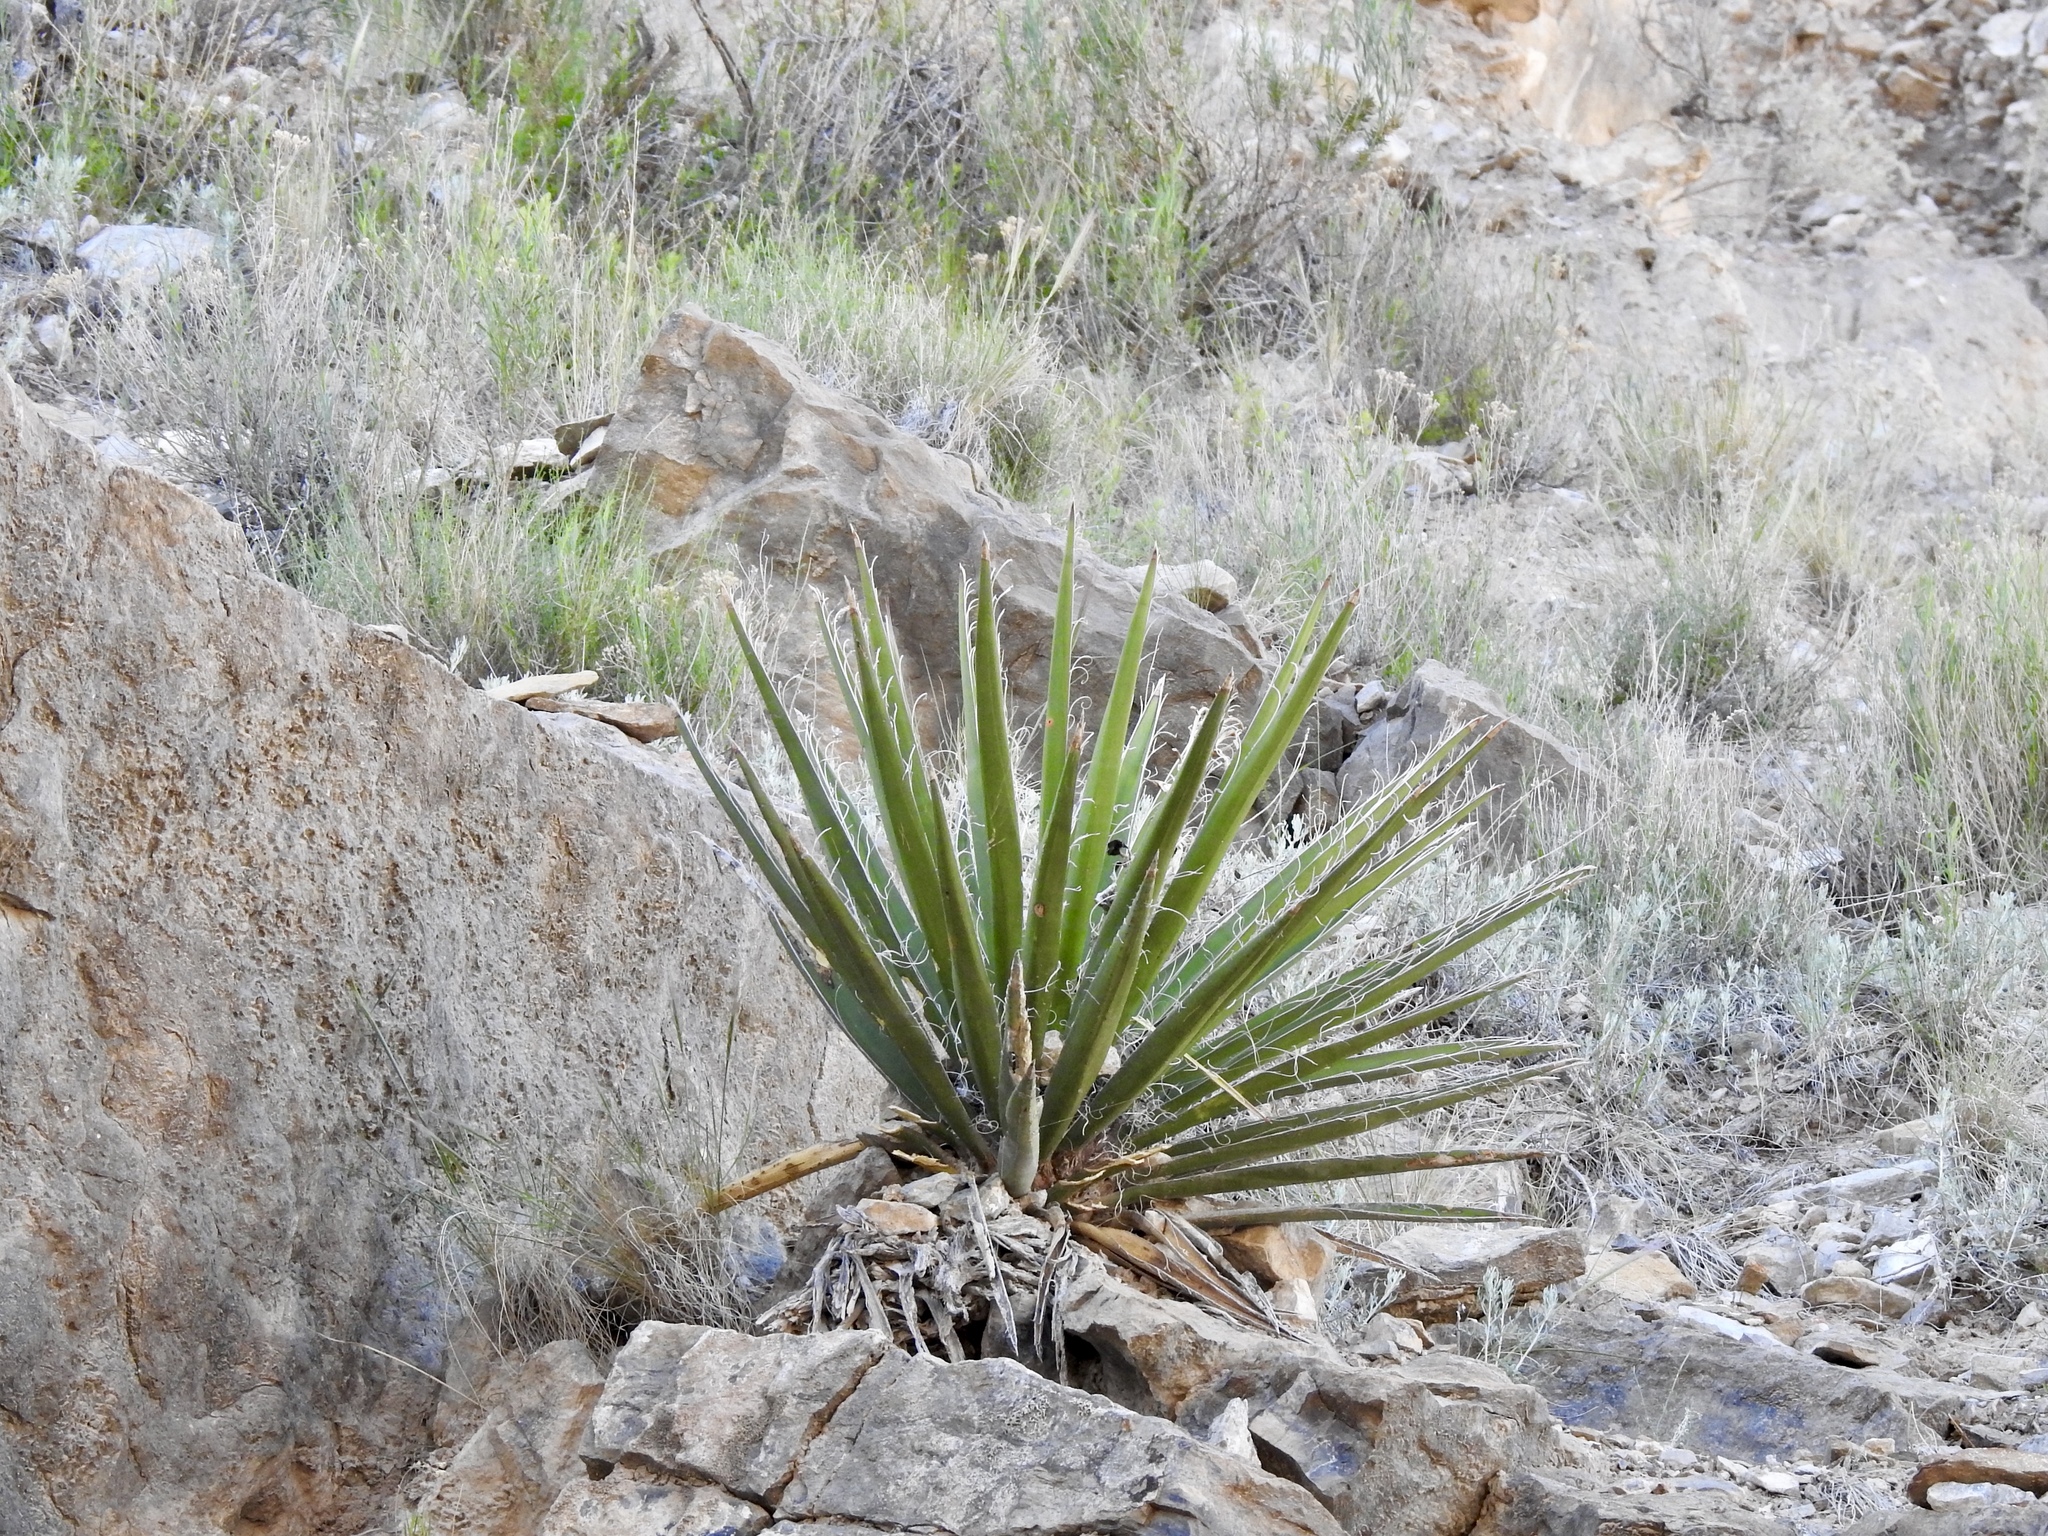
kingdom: Plantae
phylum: Tracheophyta
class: Liliopsida
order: Asparagales
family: Asparagaceae
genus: Yucca
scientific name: Yucca baccata
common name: Banana yucca
